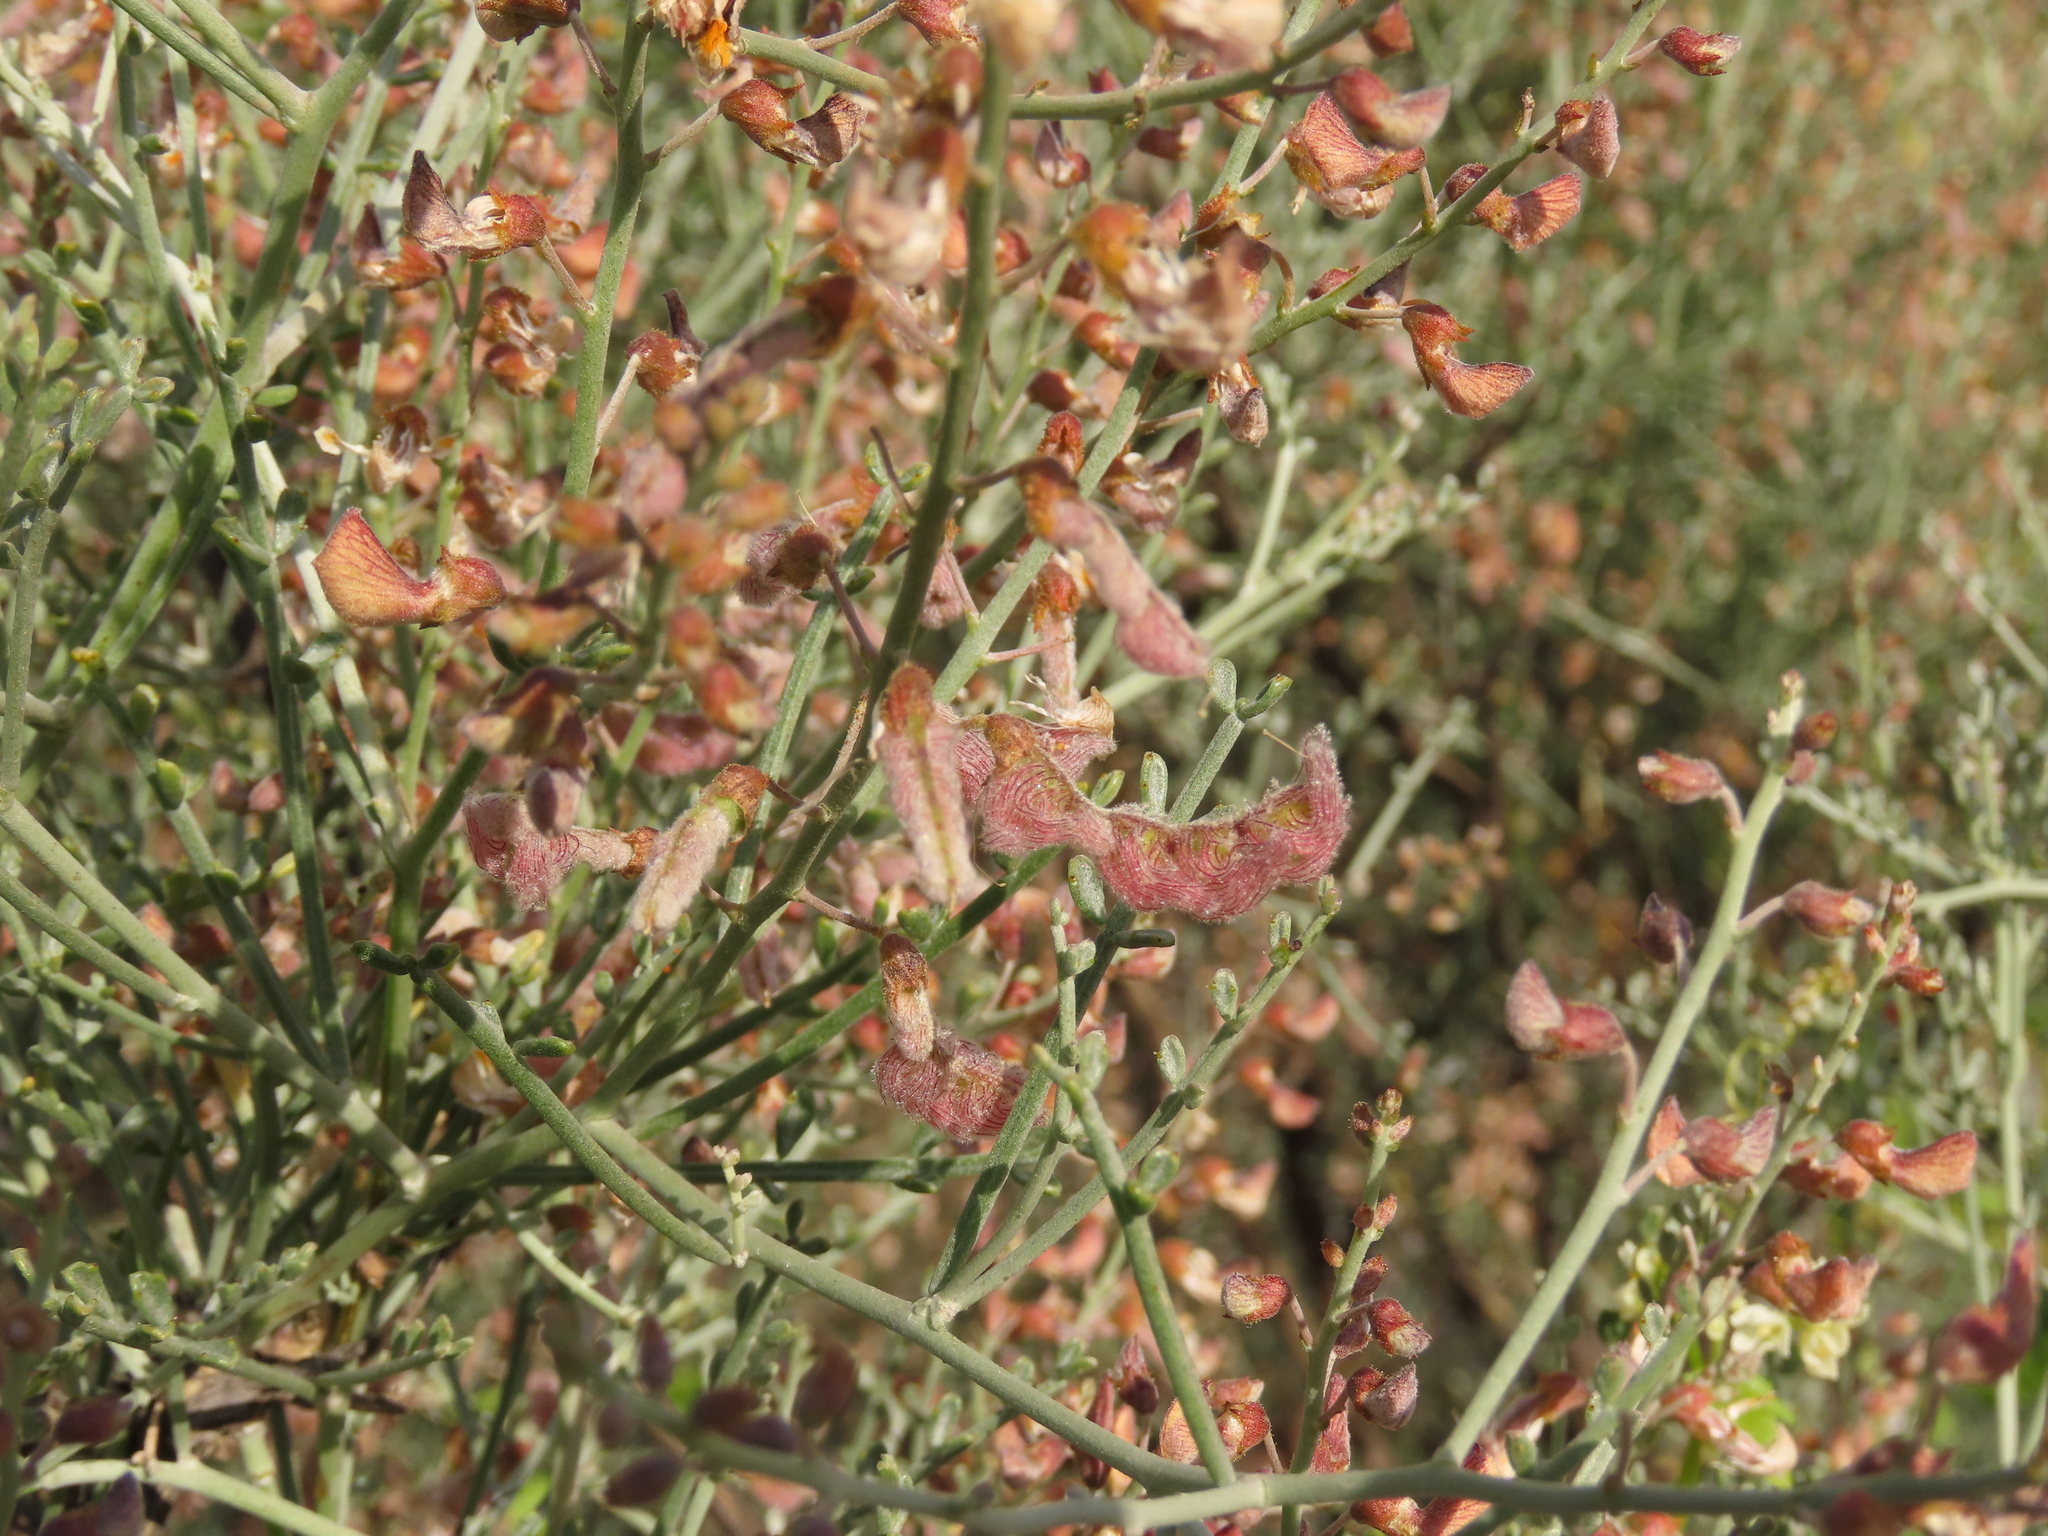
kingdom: Plantae
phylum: Tracheophyta
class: Magnoliopsida
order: Fabales
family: Fabaceae
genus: Adesmia
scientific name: Adesmia argentea
